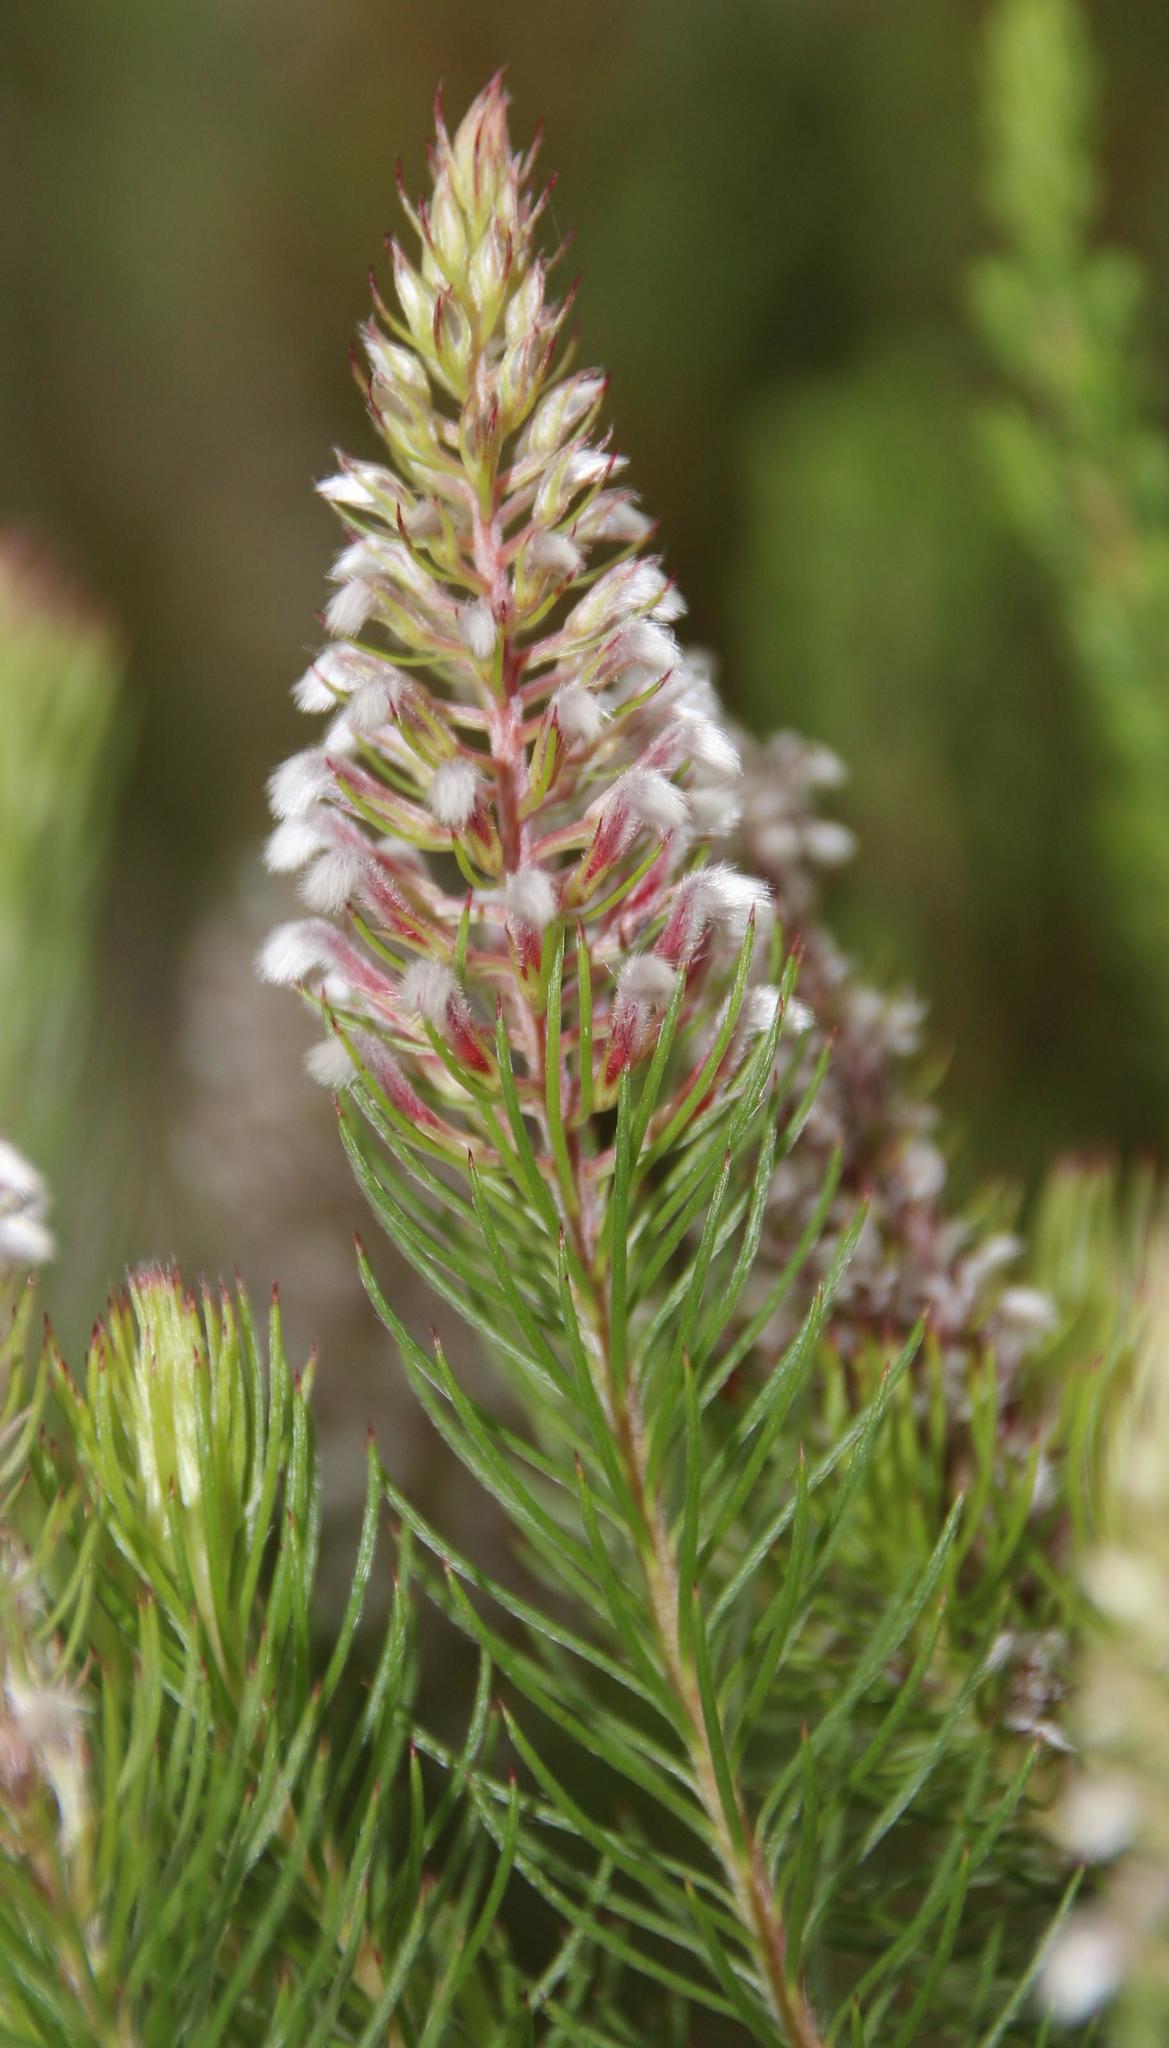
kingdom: Plantae
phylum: Tracheophyta
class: Magnoliopsida
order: Proteales
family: Proteaceae
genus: Spatalla
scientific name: Spatalla parilis
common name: Spike spoon
